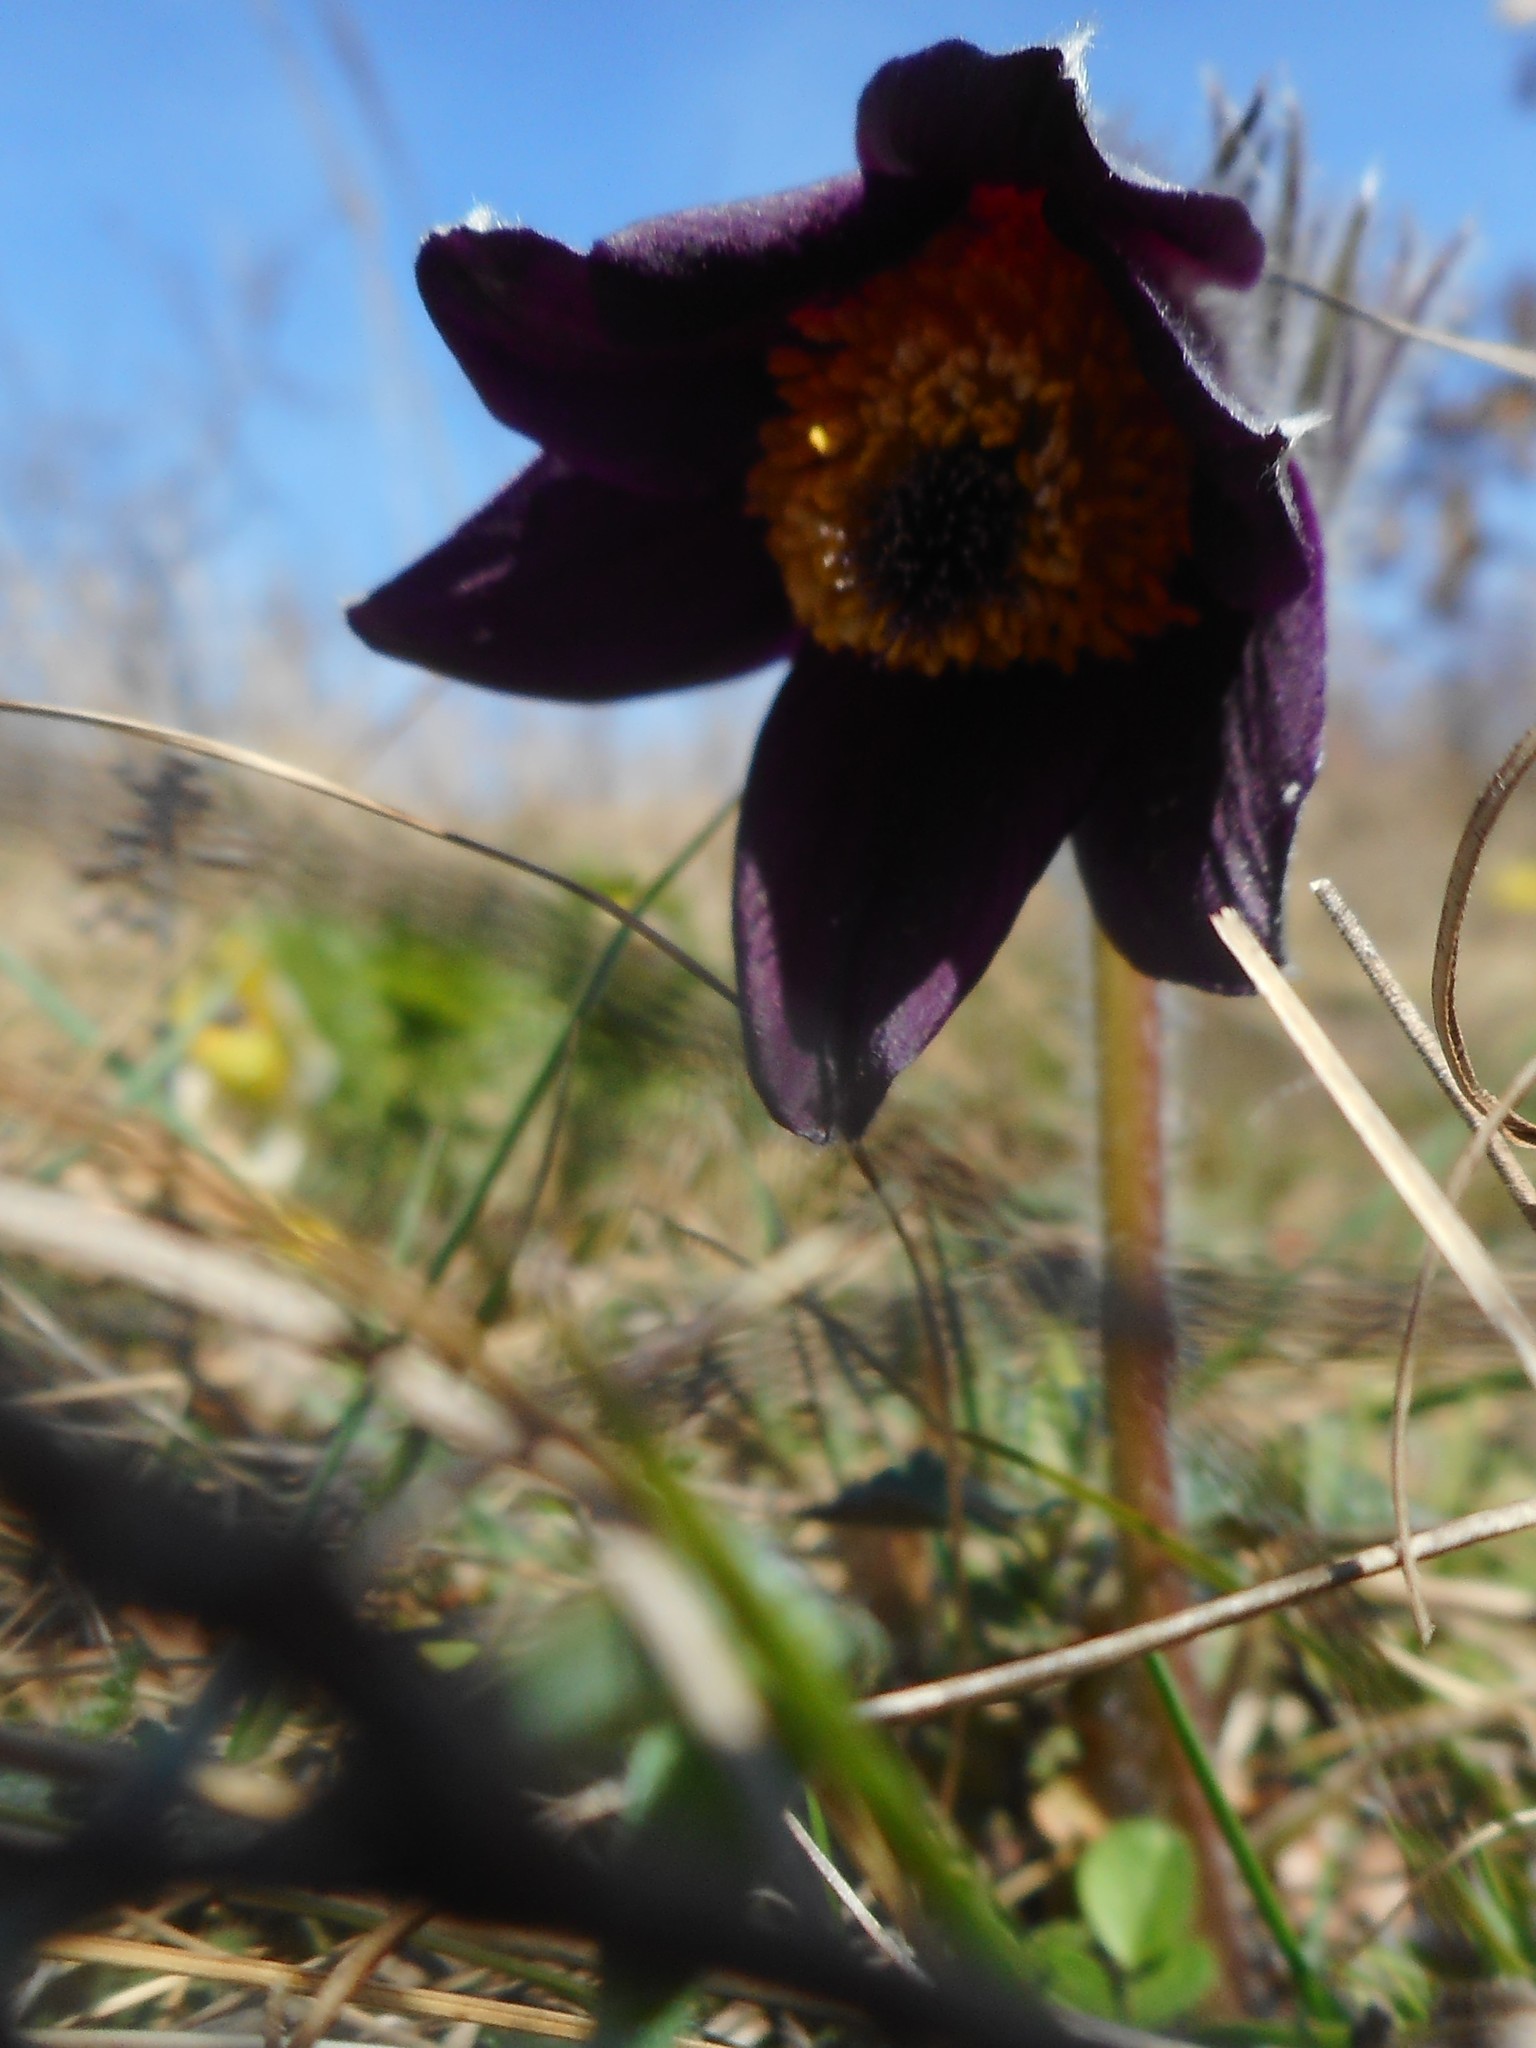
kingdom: Plantae
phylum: Tracheophyta
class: Magnoliopsida
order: Ranunculales
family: Ranunculaceae
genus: Pulsatilla
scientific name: Pulsatilla pratensis
